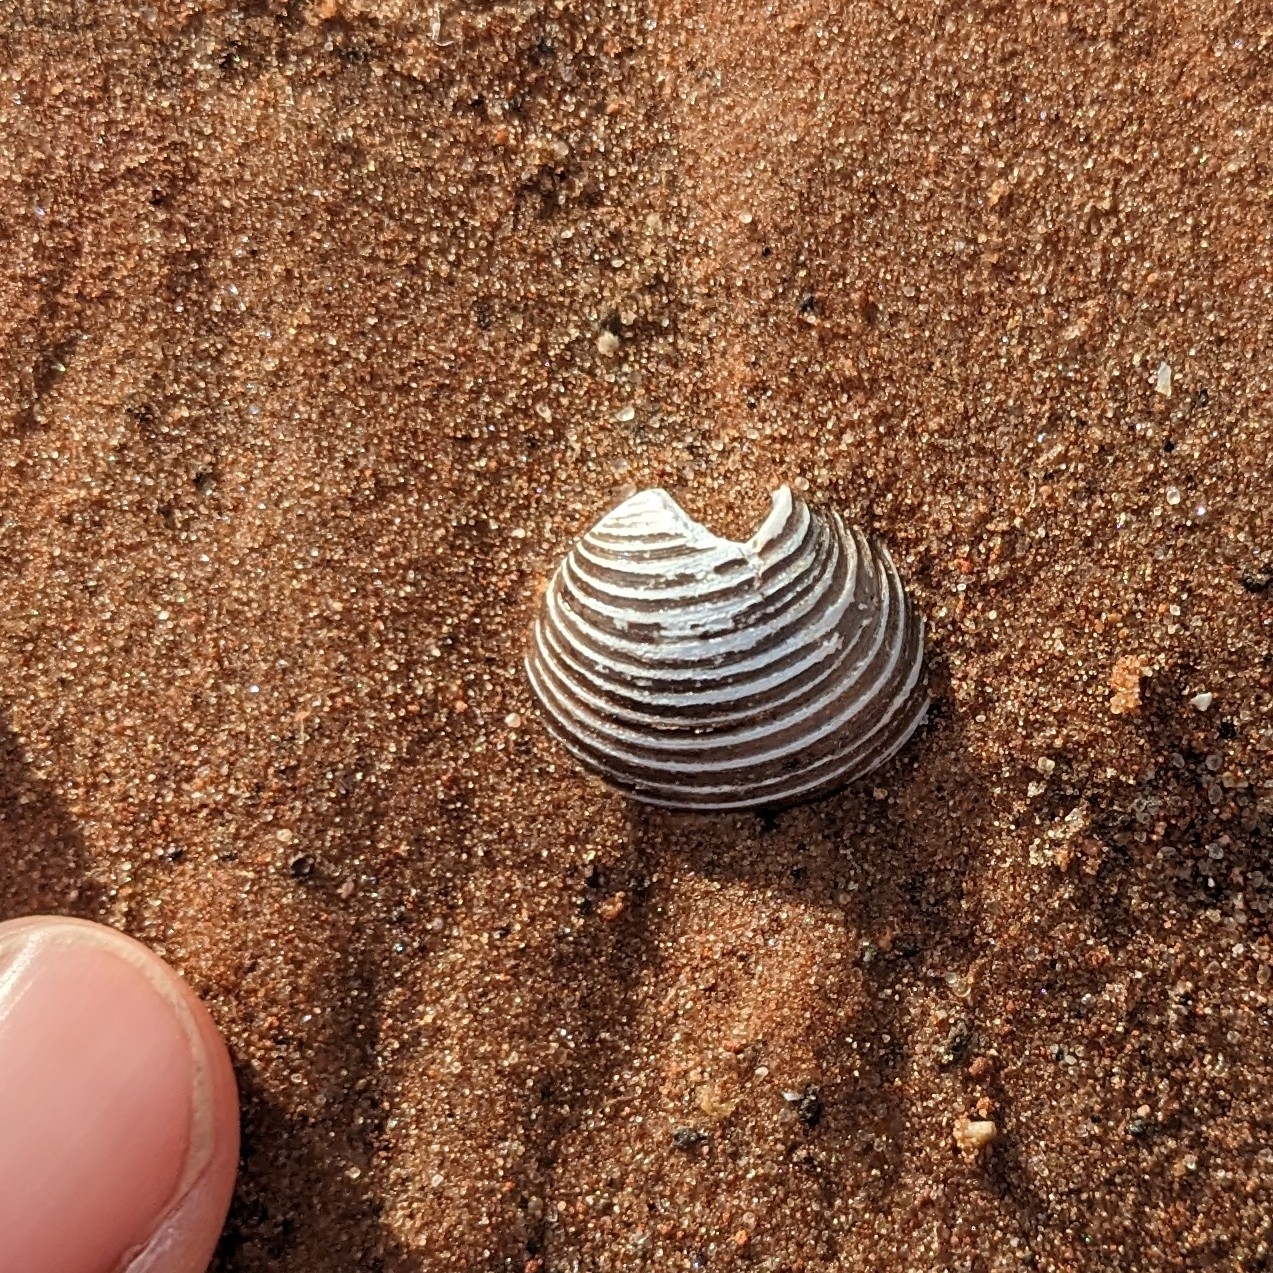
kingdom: Animalia
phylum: Mollusca
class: Bivalvia
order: Venerida
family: Cyrenidae
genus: Corbicula
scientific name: Corbicula fluminea
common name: Asian clam
